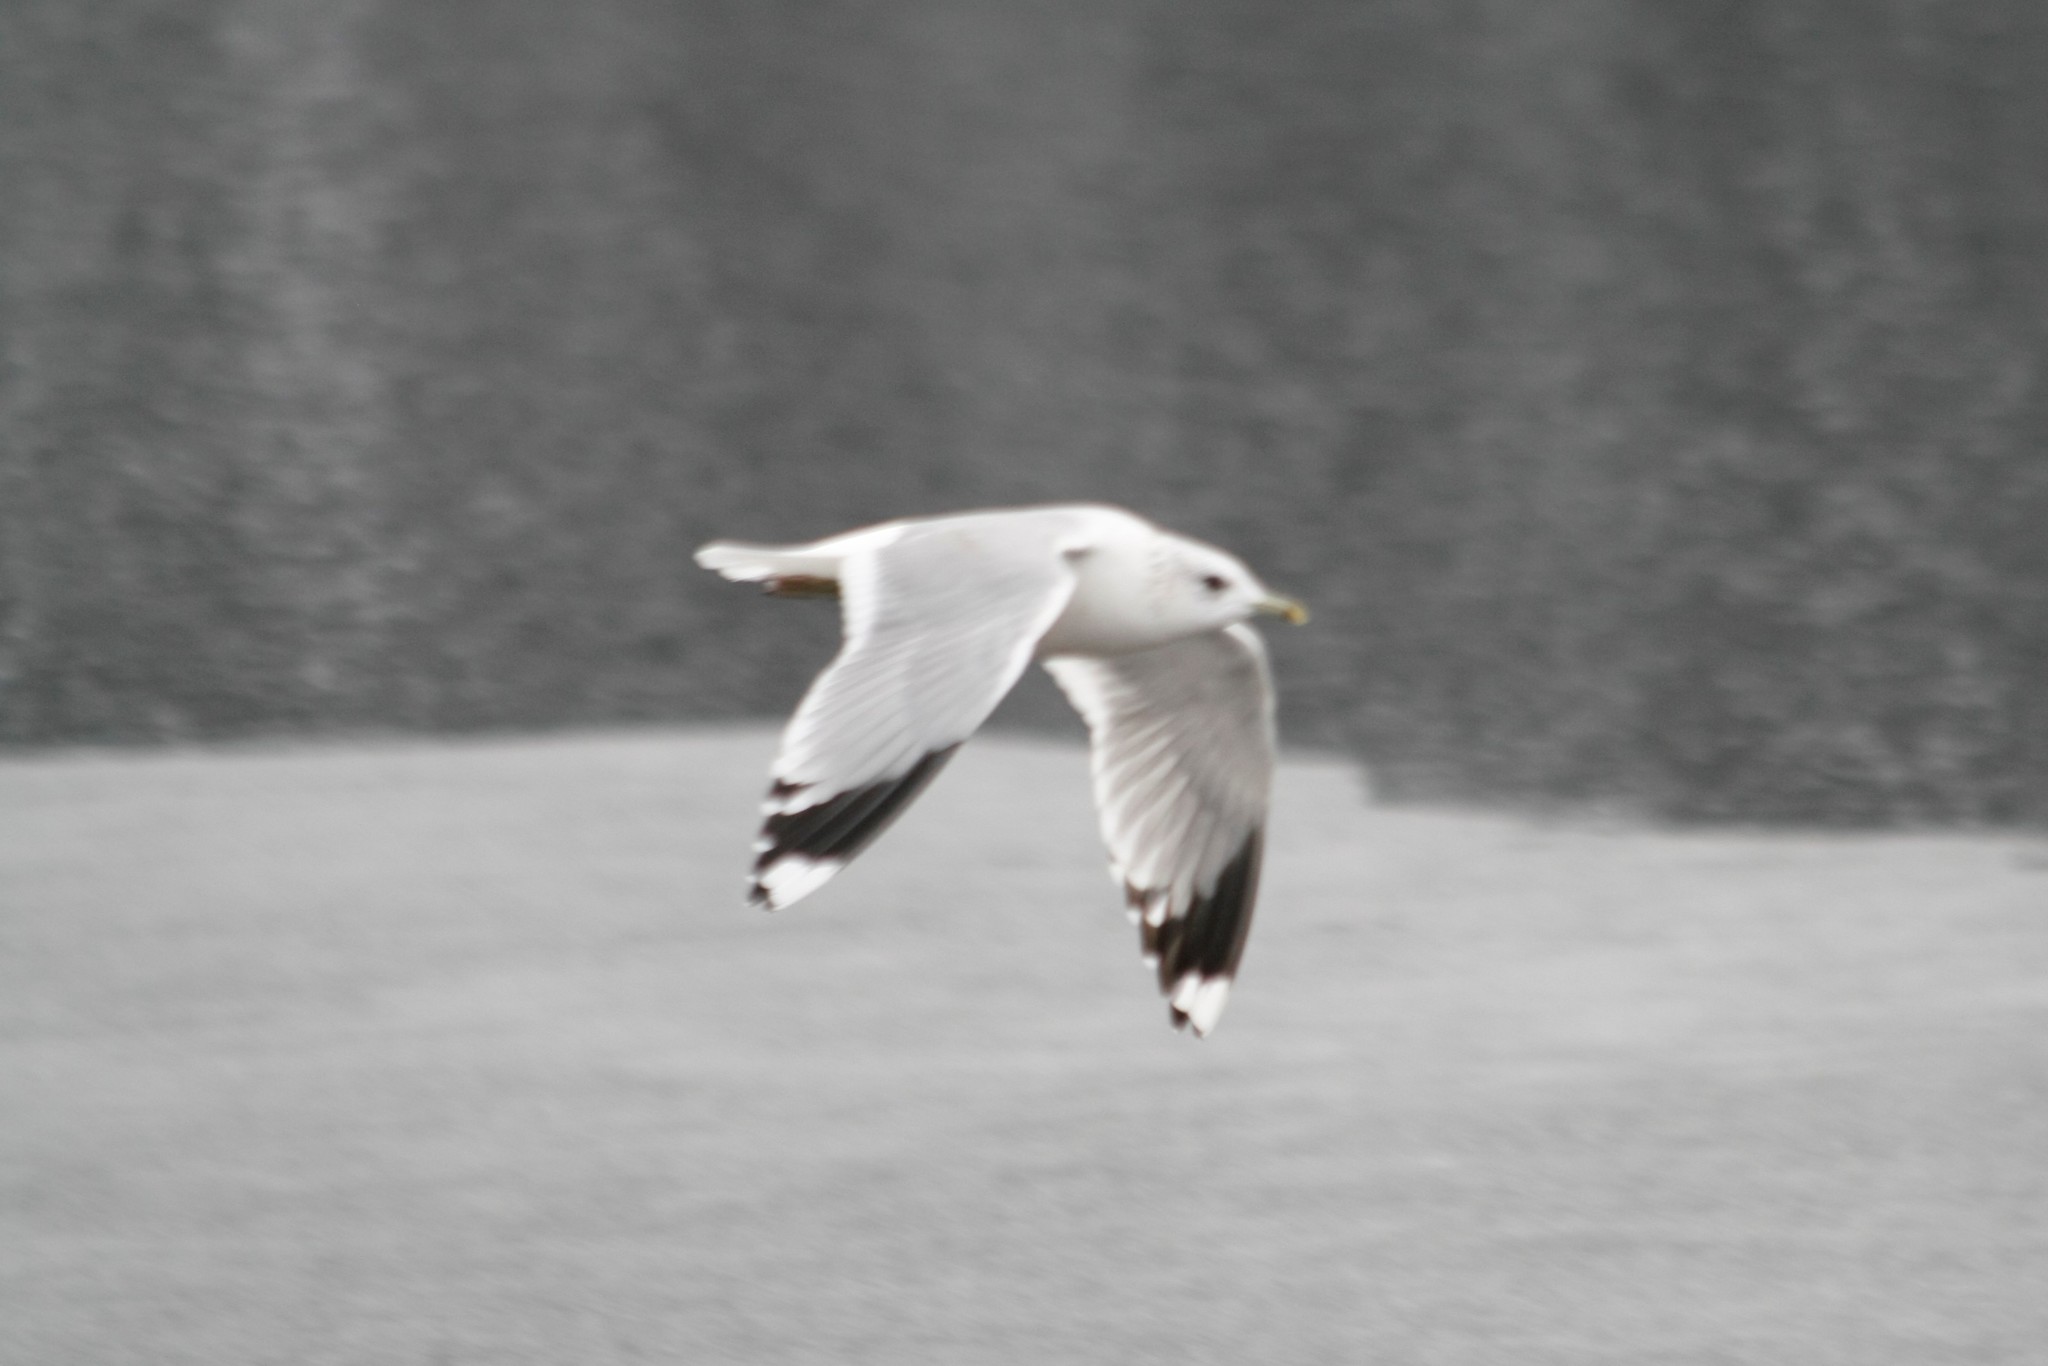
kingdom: Animalia
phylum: Chordata
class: Aves
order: Charadriiformes
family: Laridae
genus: Larus
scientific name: Larus canus
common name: Mew gull
